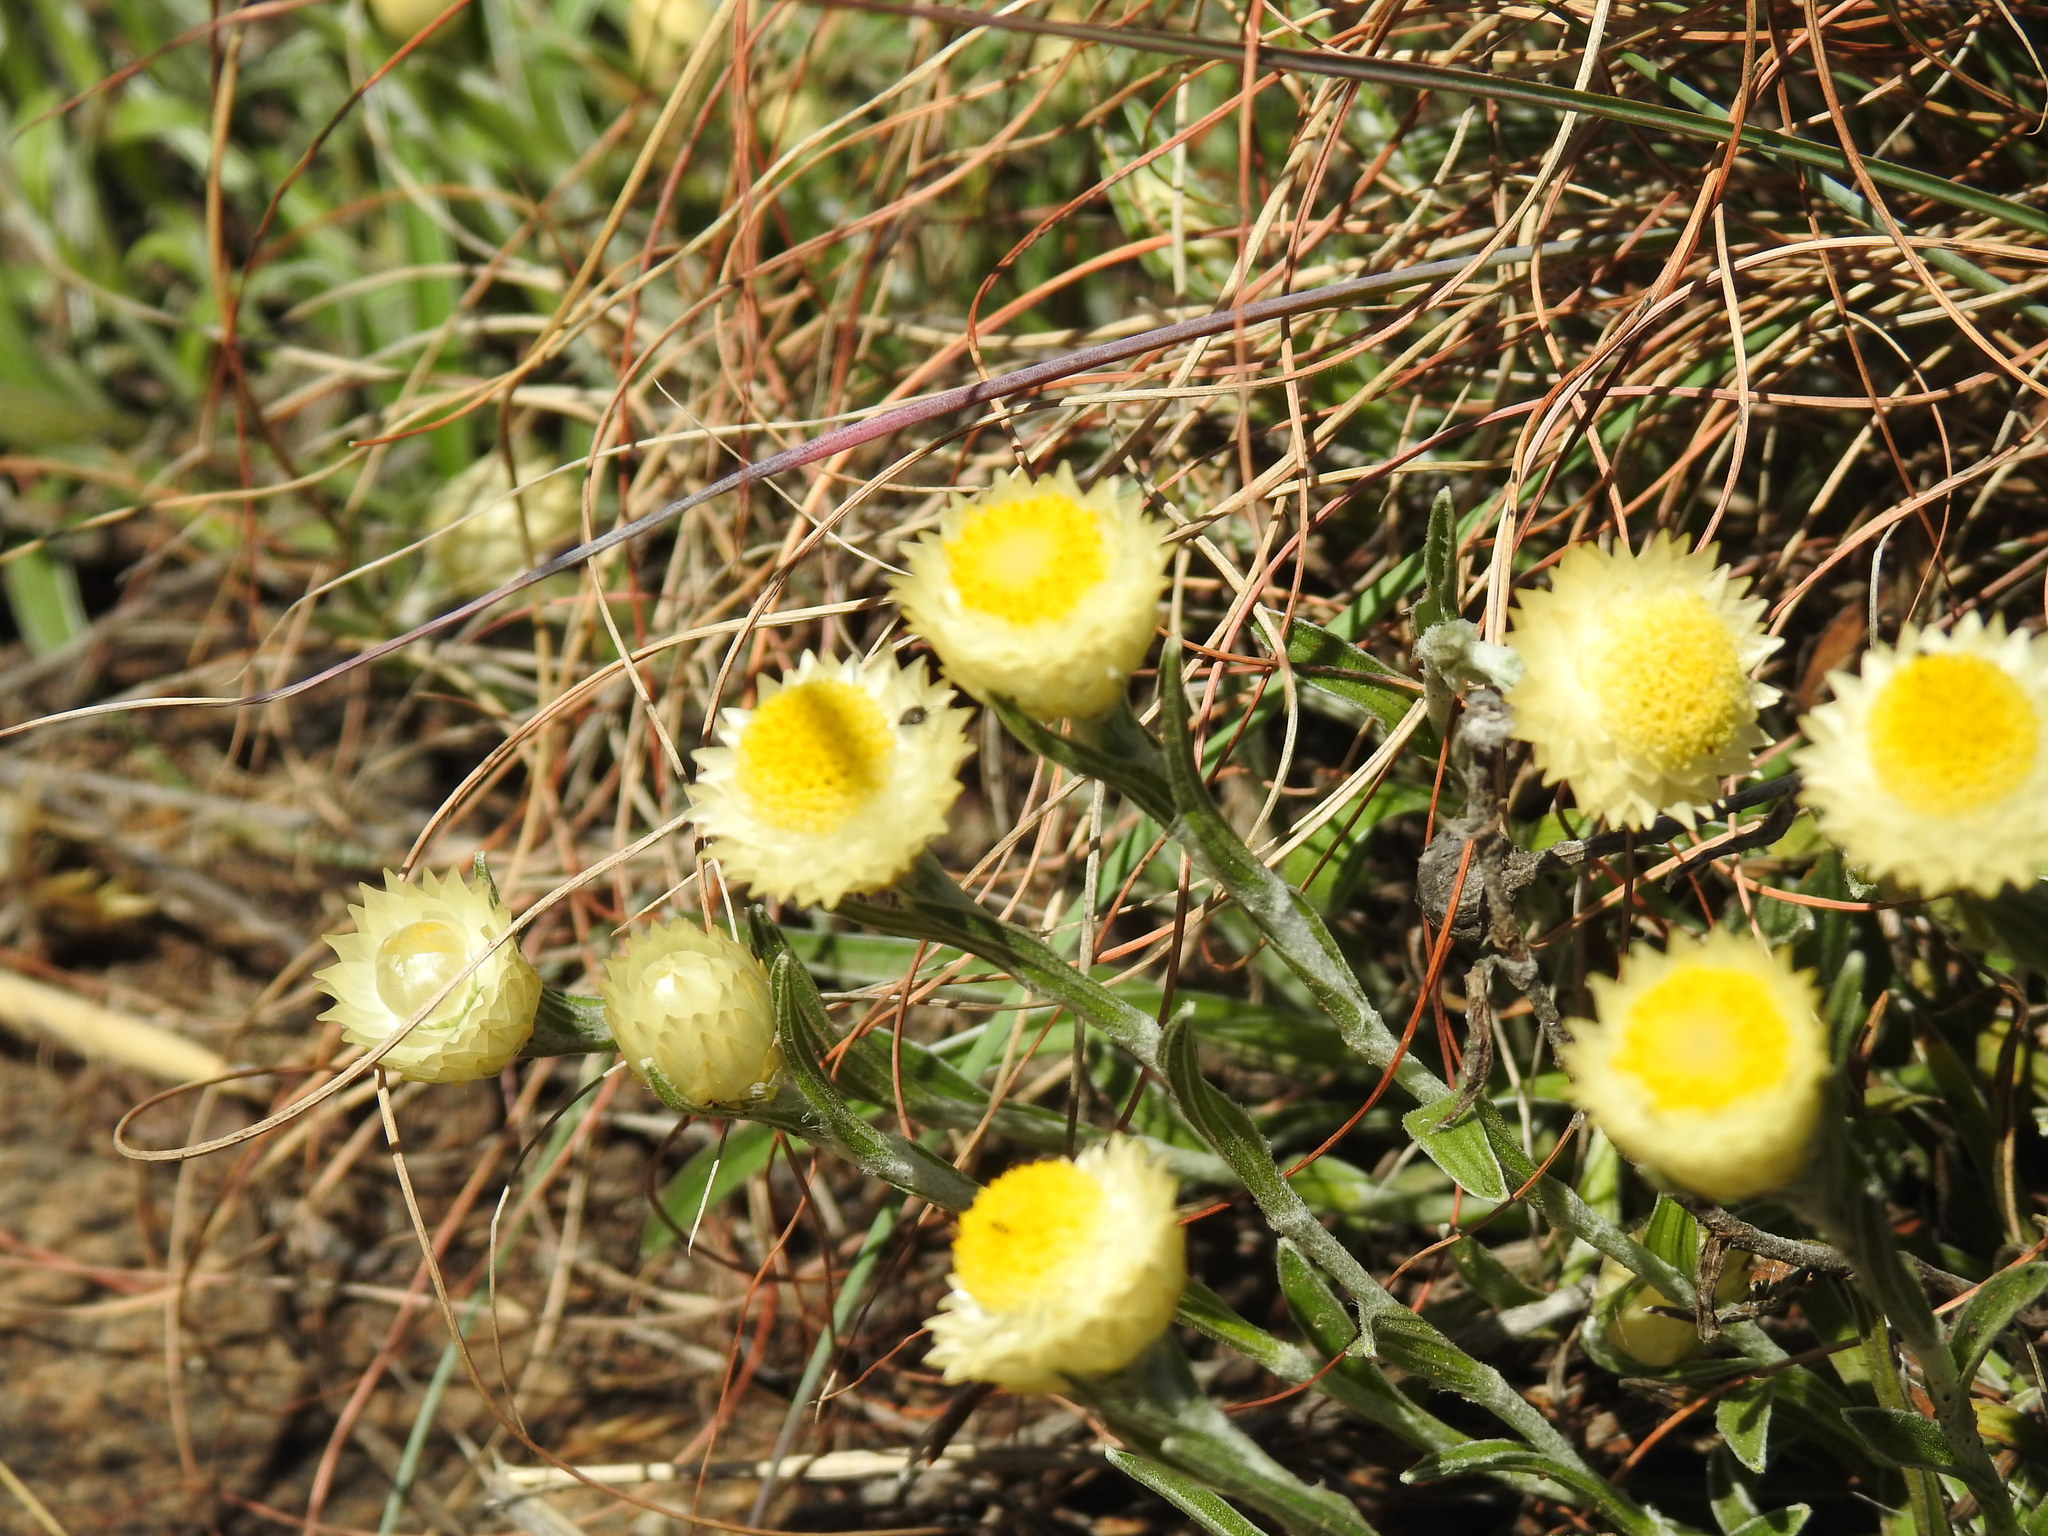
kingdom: Plantae
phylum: Tracheophyta
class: Magnoliopsida
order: Asterales
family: Asteraceae
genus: Helichrysum
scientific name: Helichrysum chionosphaerum
